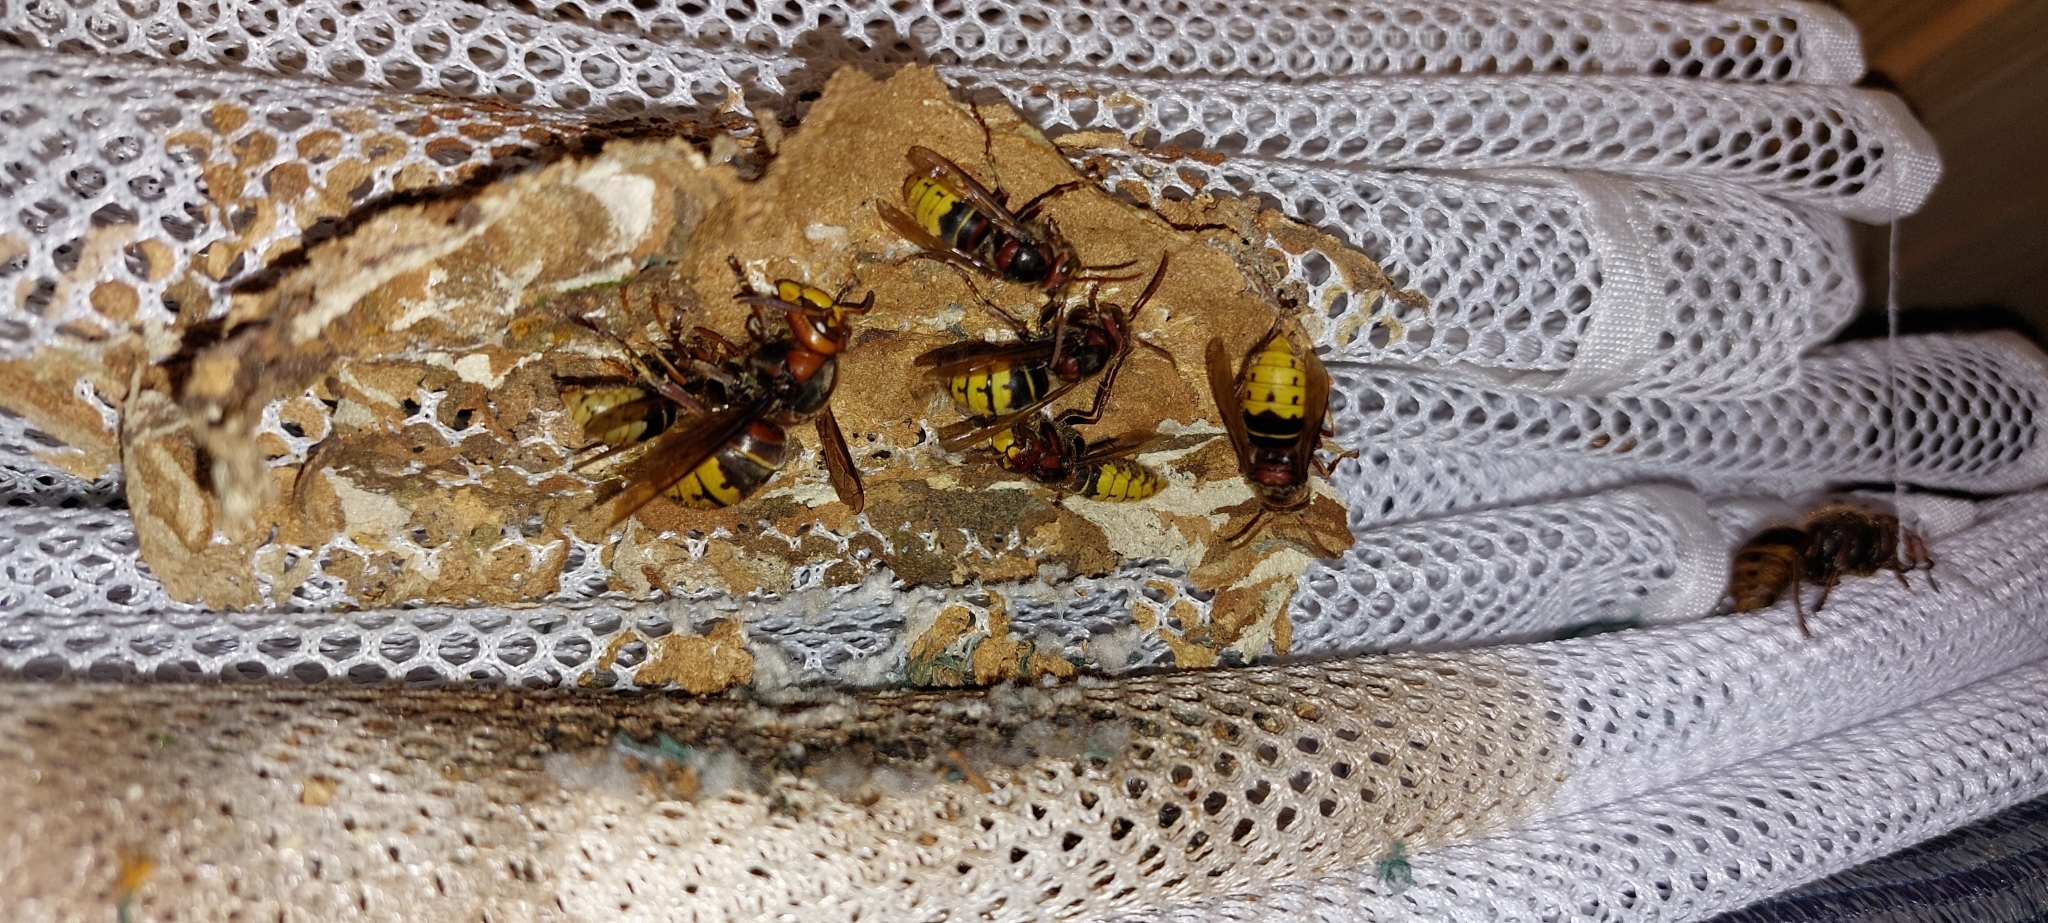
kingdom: Animalia
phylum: Arthropoda
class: Insecta
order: Hymenoptera
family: Vespidae
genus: Vespa
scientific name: Vespa crabro
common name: Hornet
